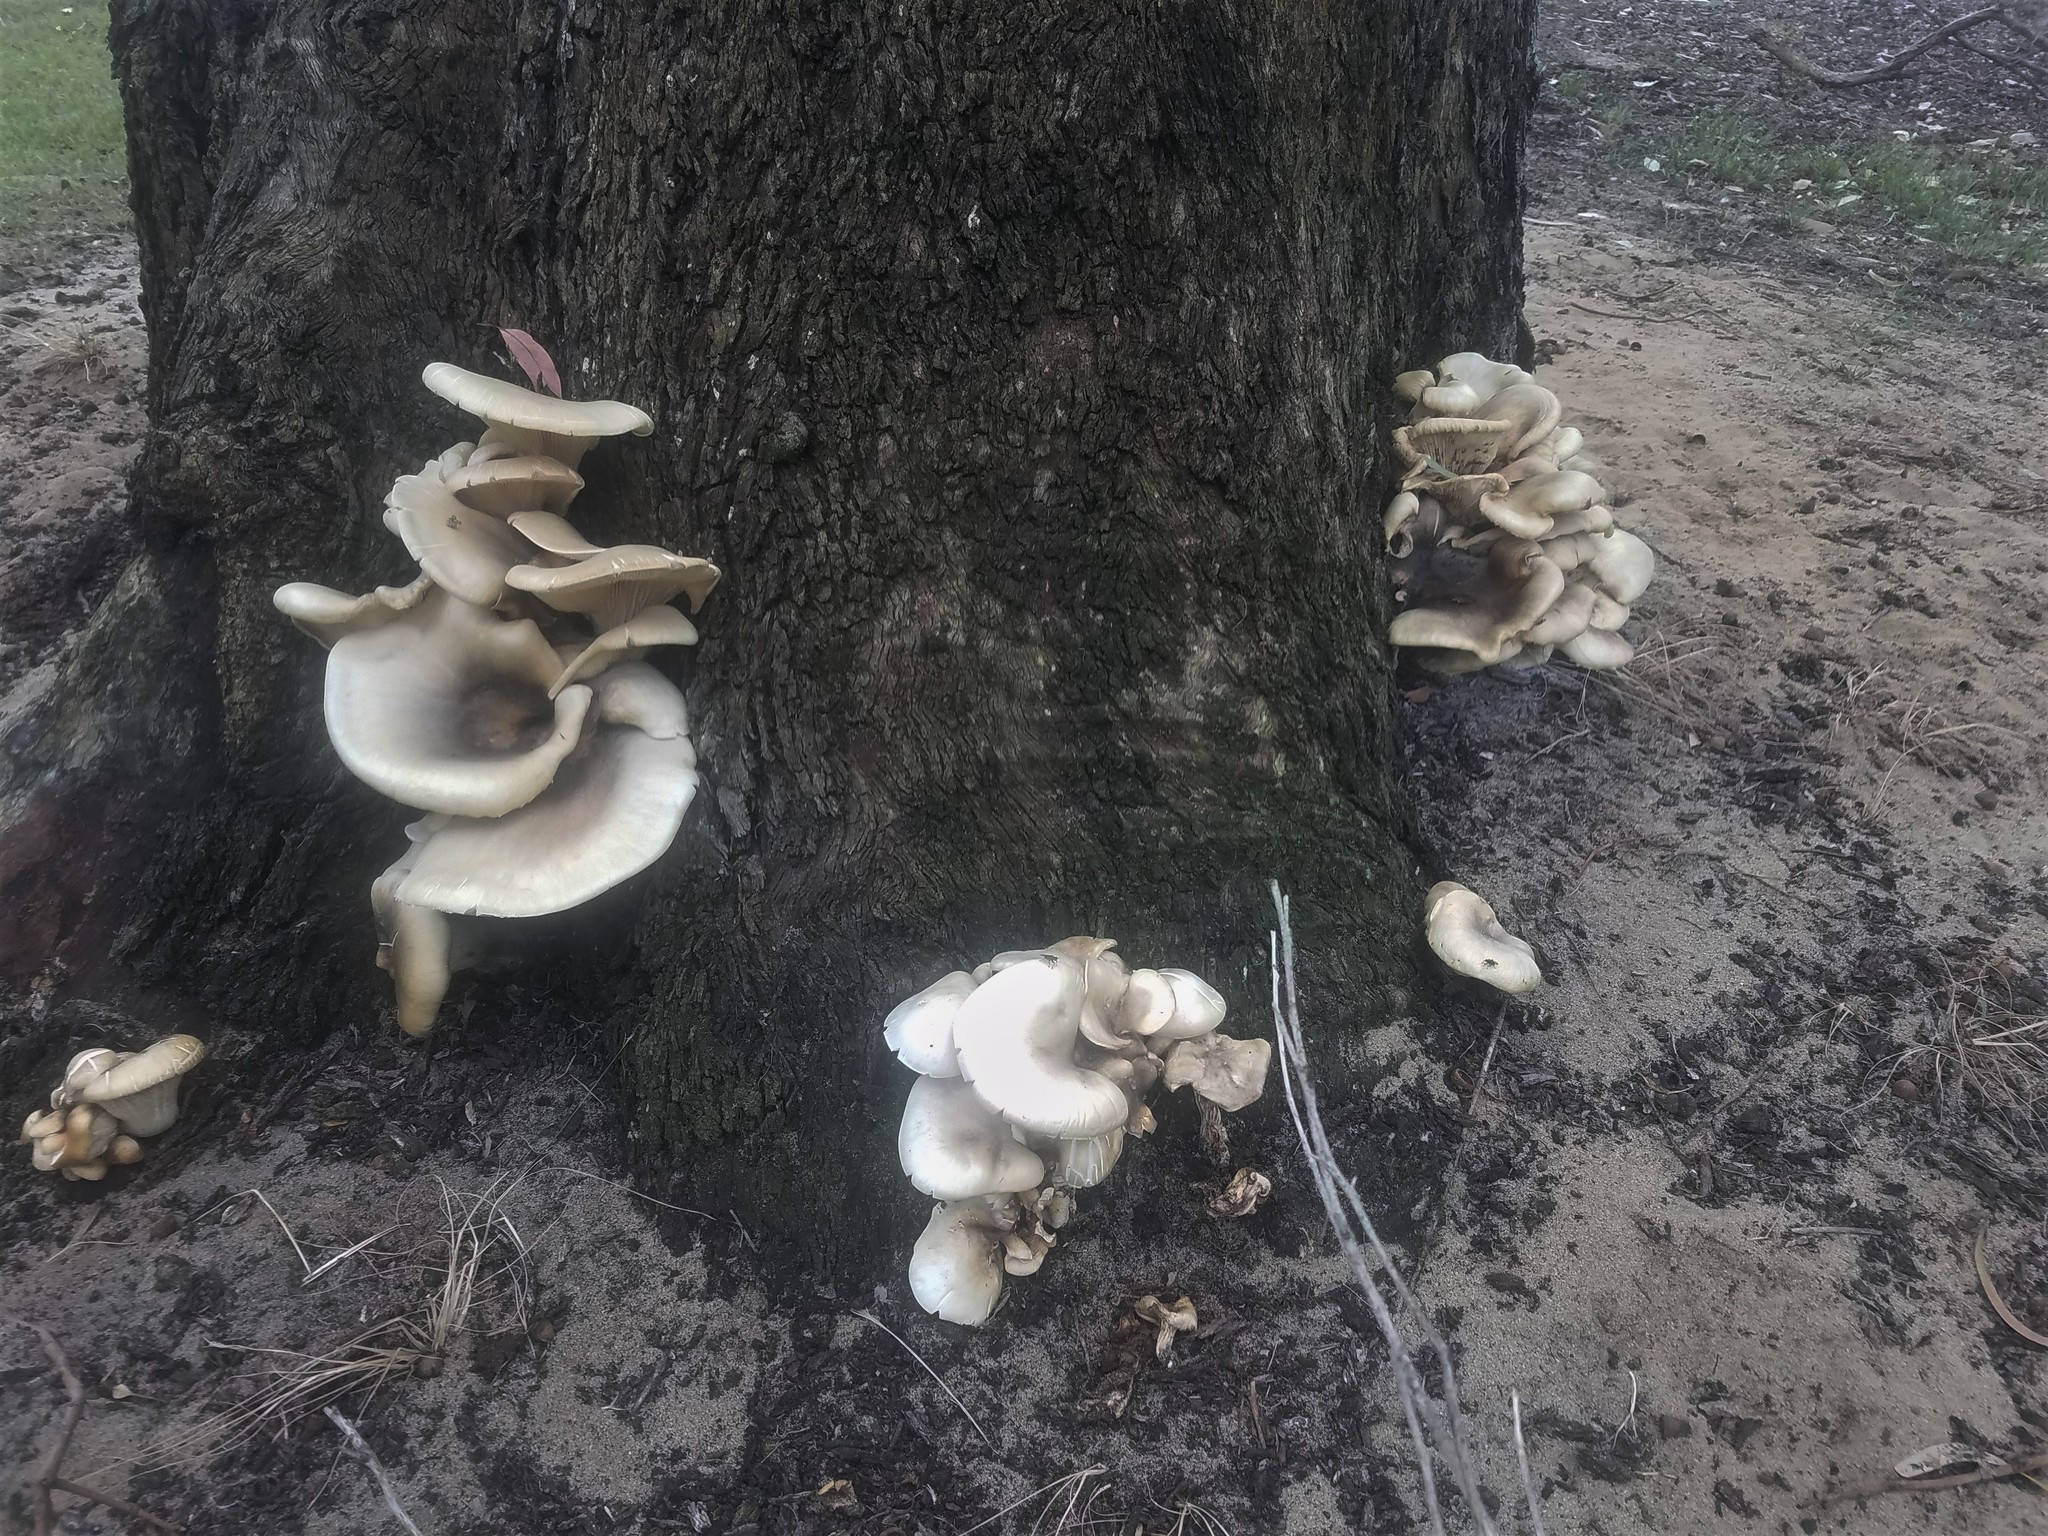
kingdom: Fungi
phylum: Basidiomycota
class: Agaricomycetes
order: Agaricales
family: Omphalotaceae
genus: Omphalotus
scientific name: Omphalotus nidiformis
